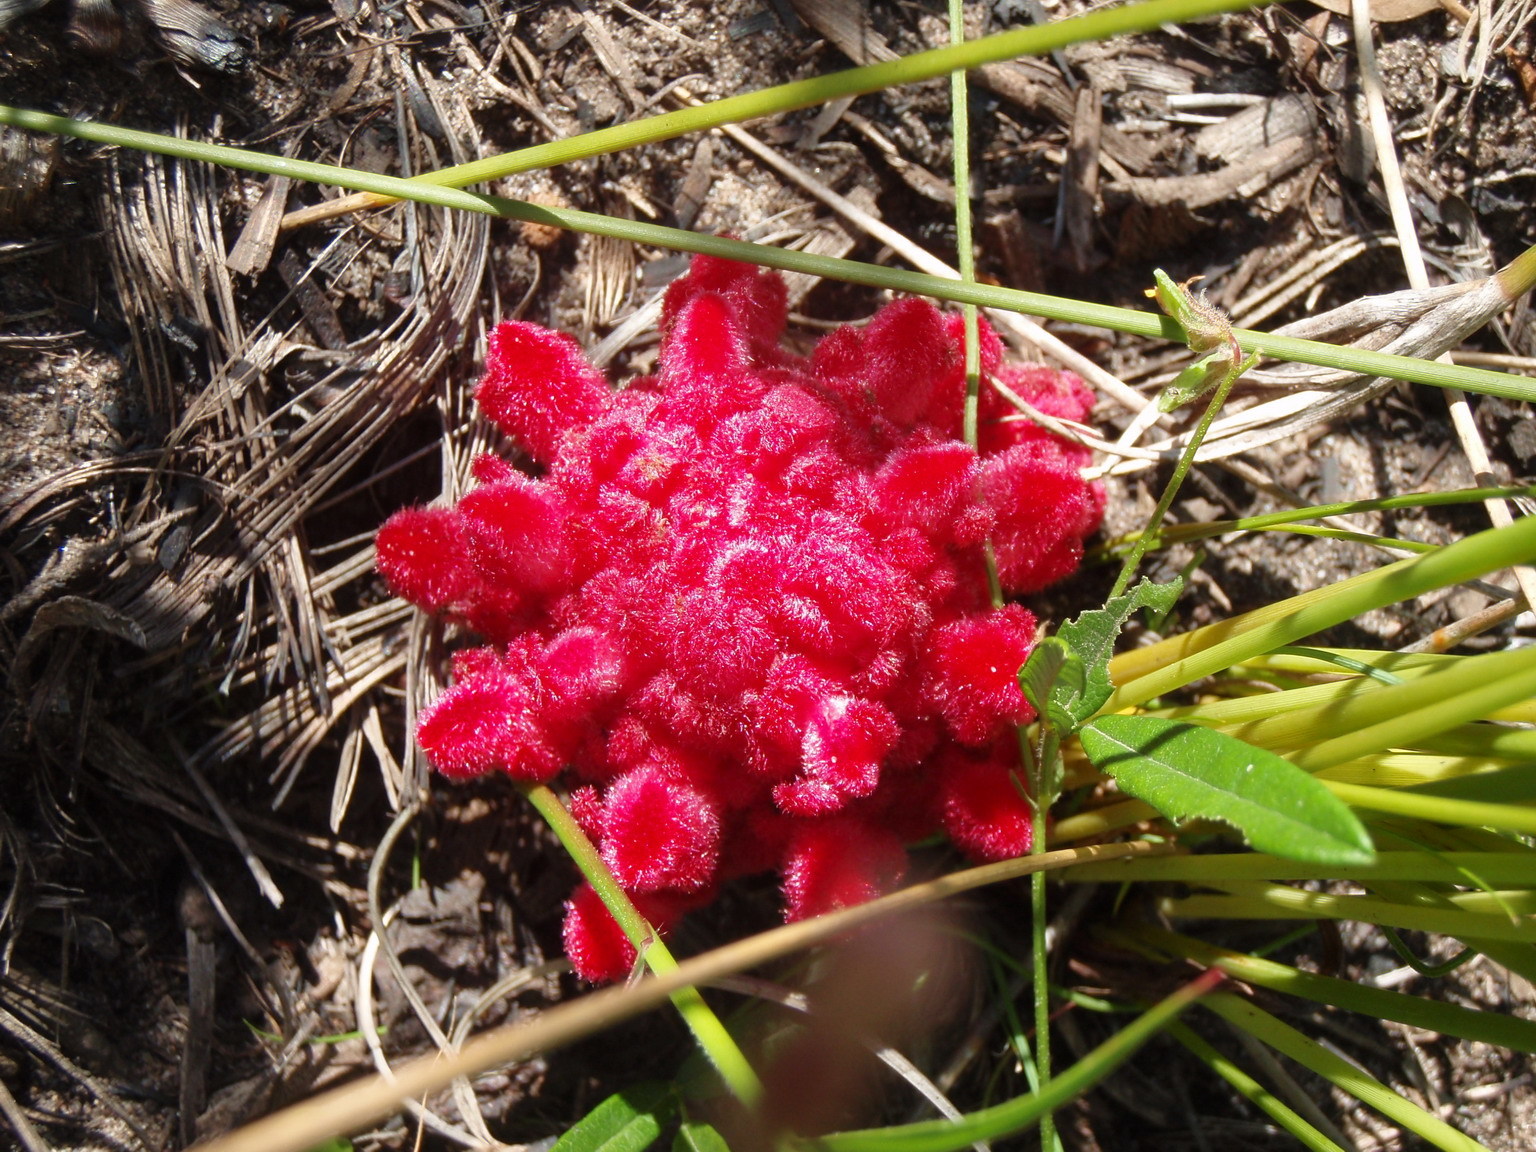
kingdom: Plantae
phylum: Tracheophyta
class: Magnoliopsida
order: Lamiales
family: Orobanchaceae
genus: Hyobanche
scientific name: Hyobanche sanguinea
